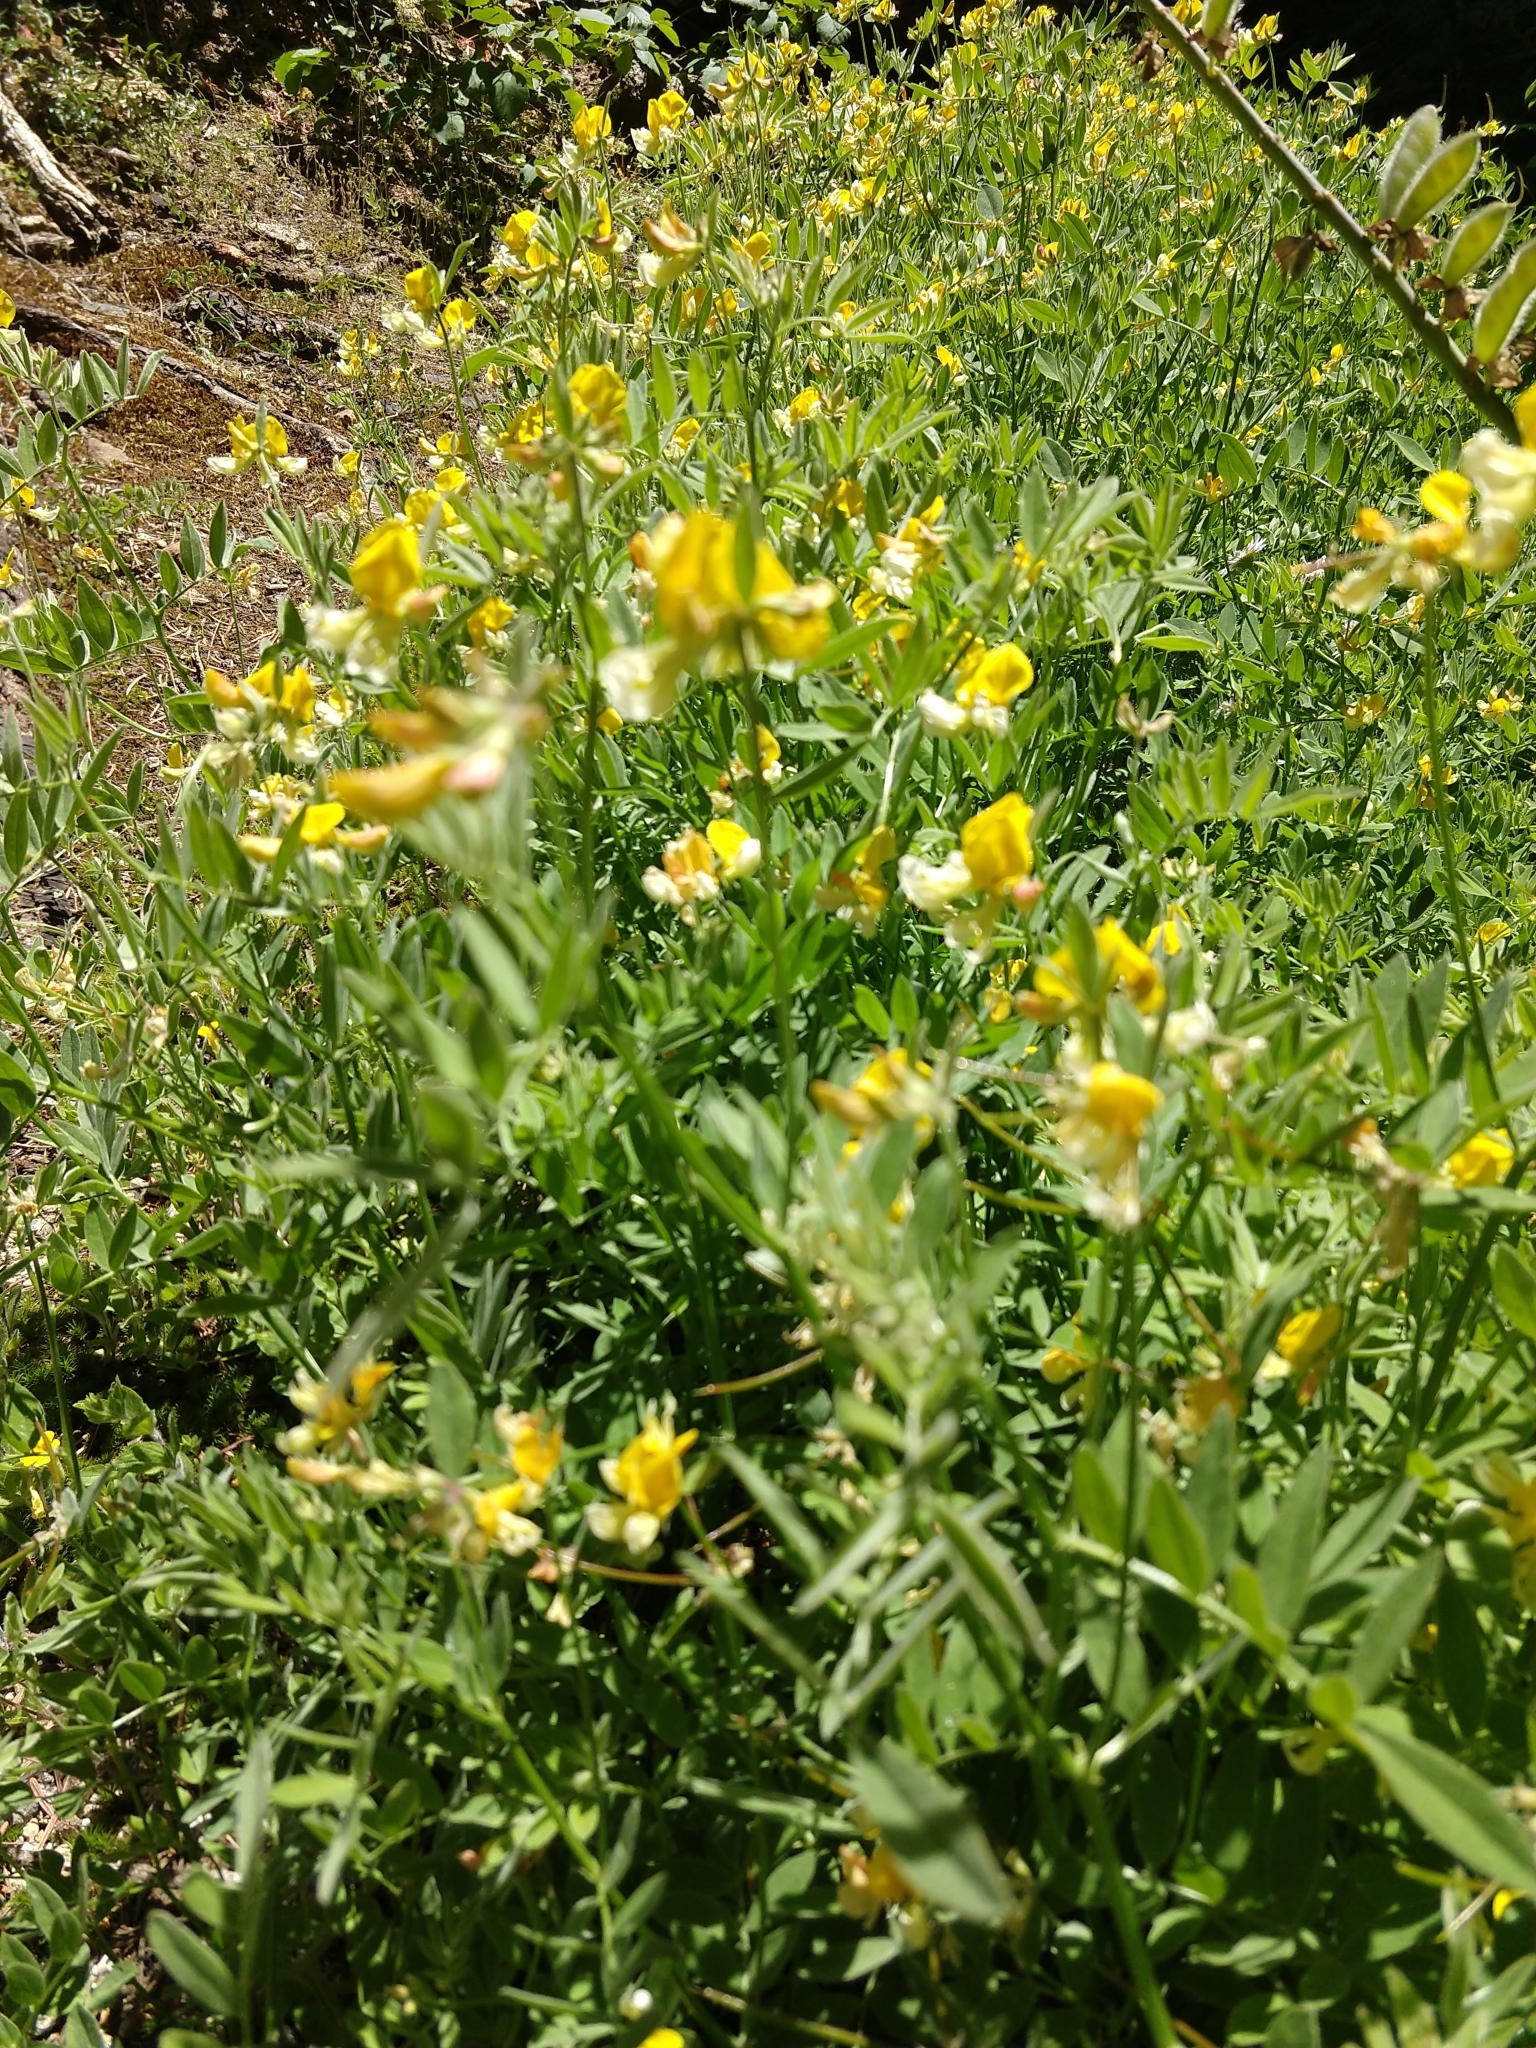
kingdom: Plantae
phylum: Tracheophyta
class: Magnoliopsida
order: Fabales
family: Fabaceae
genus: Hosackia
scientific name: Hosackia oblongifolia
